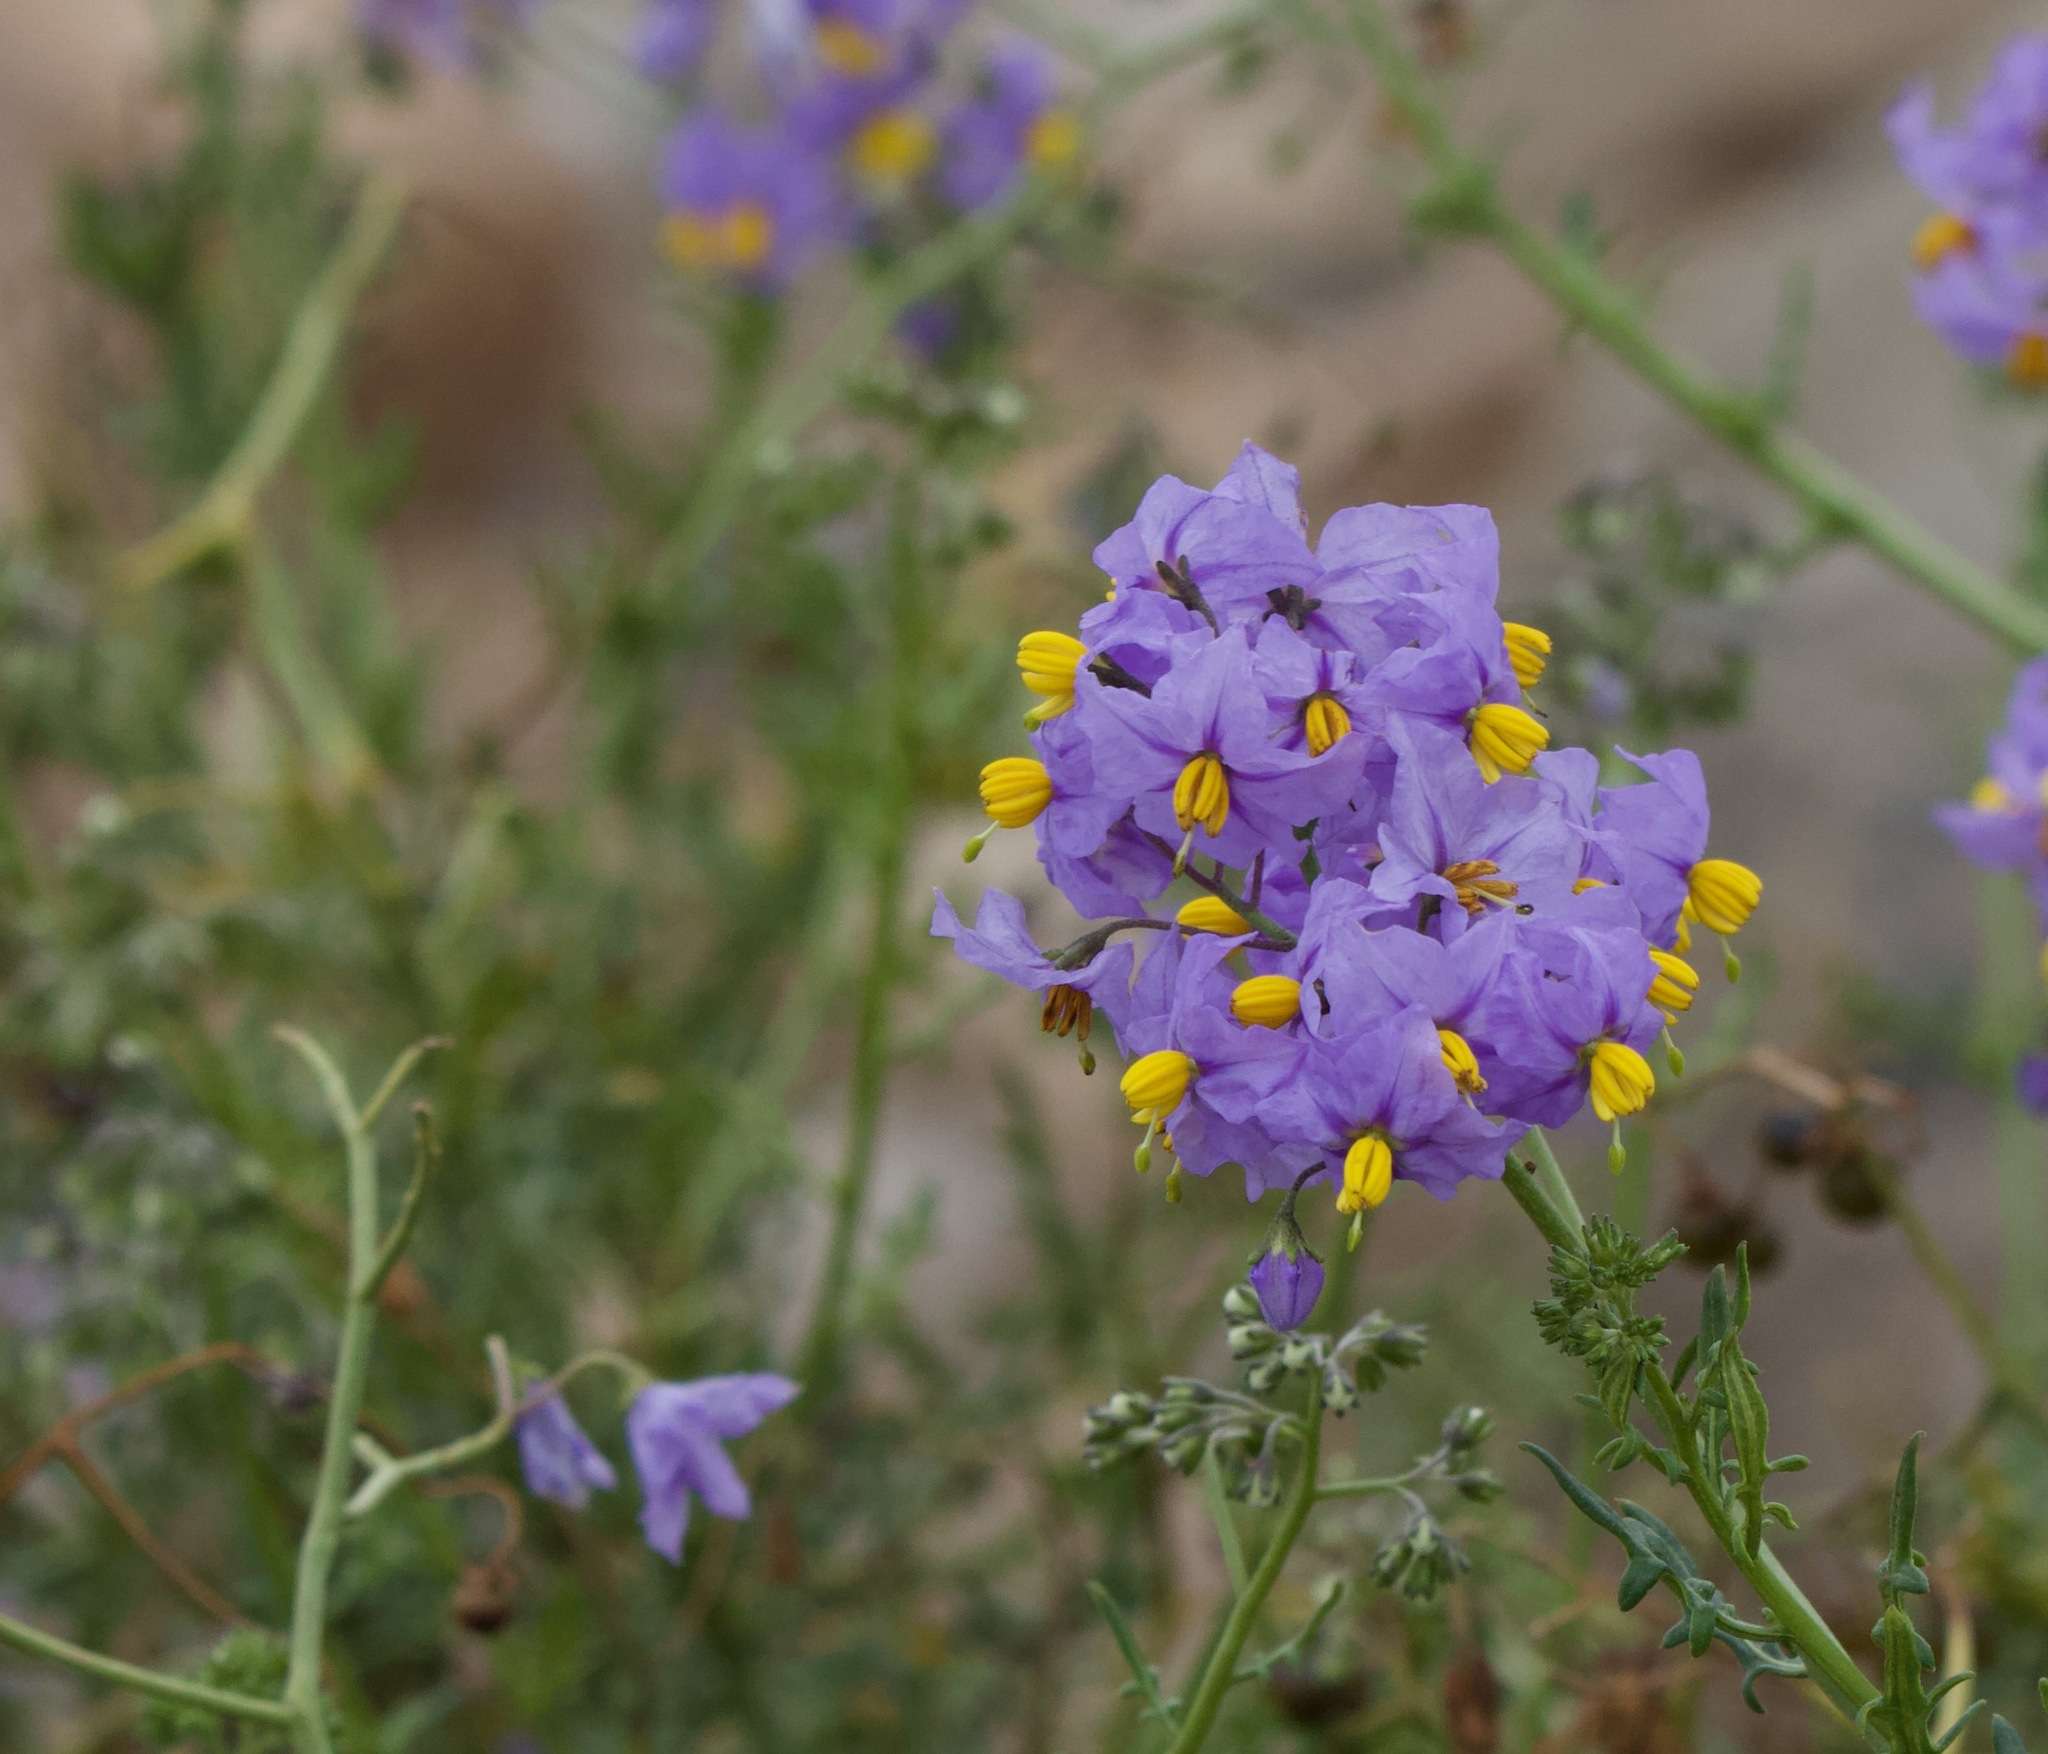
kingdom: Plantae
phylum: Tracheophyta
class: Magnoliopsida
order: Solanales
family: Solanaceae
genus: Solanum
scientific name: Solanum pinnatum
